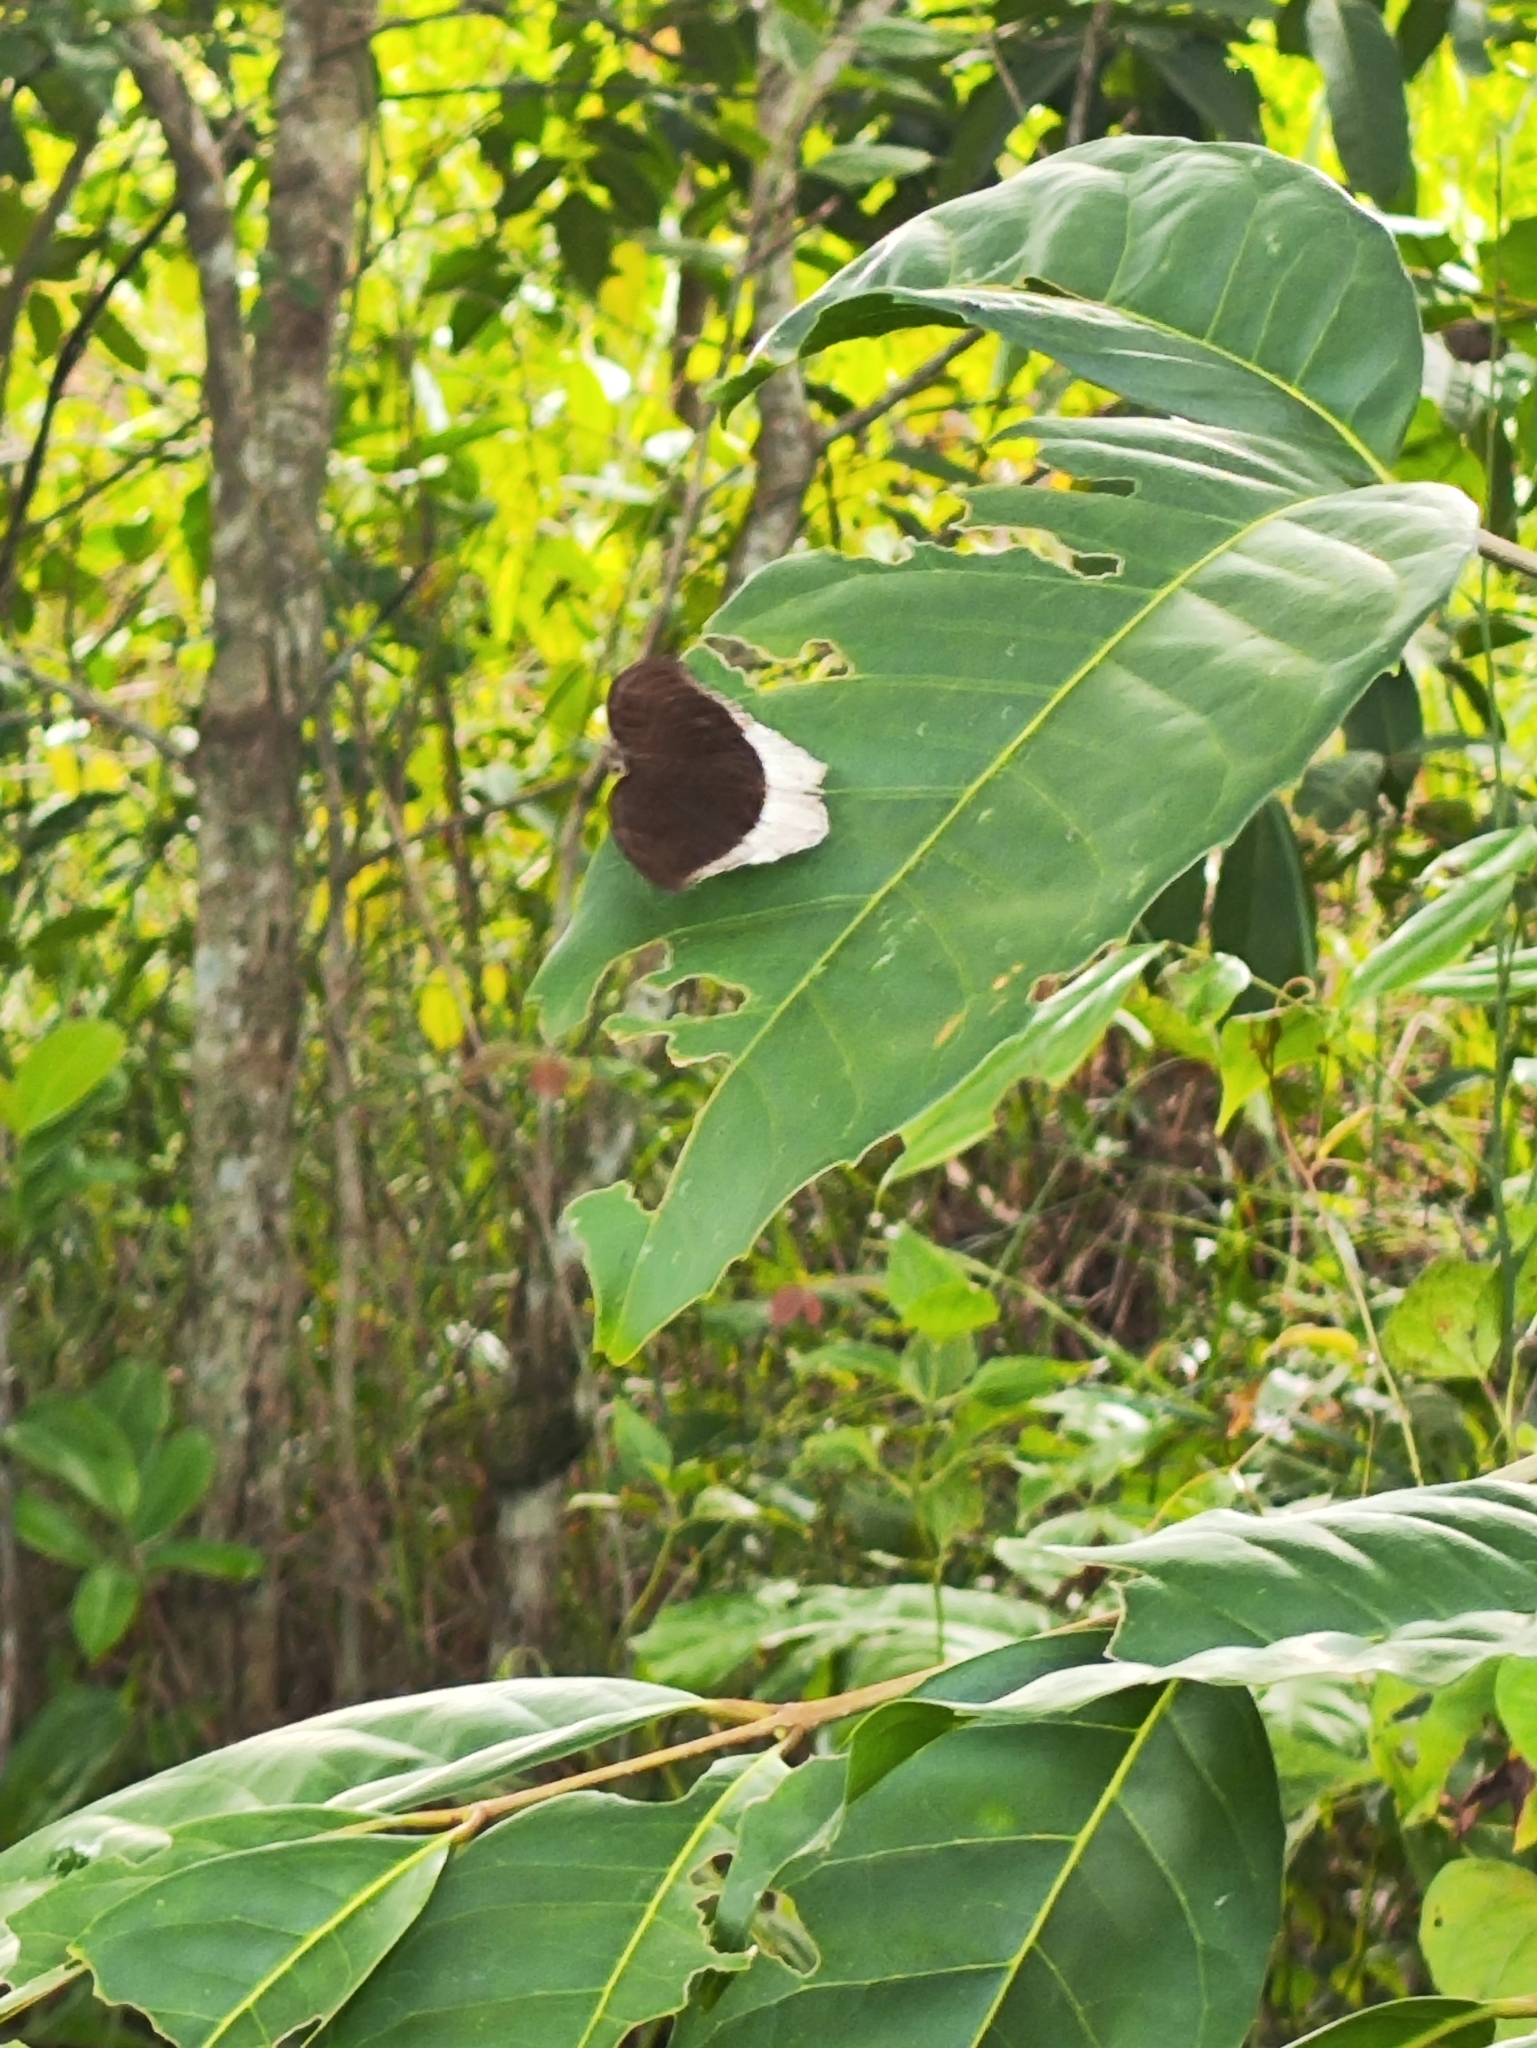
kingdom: Animalia
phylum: Arthropoda
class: Insecta
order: Lepidoptera
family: Nymphalidae
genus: Tanaecia
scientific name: Tanaecia lepidea
